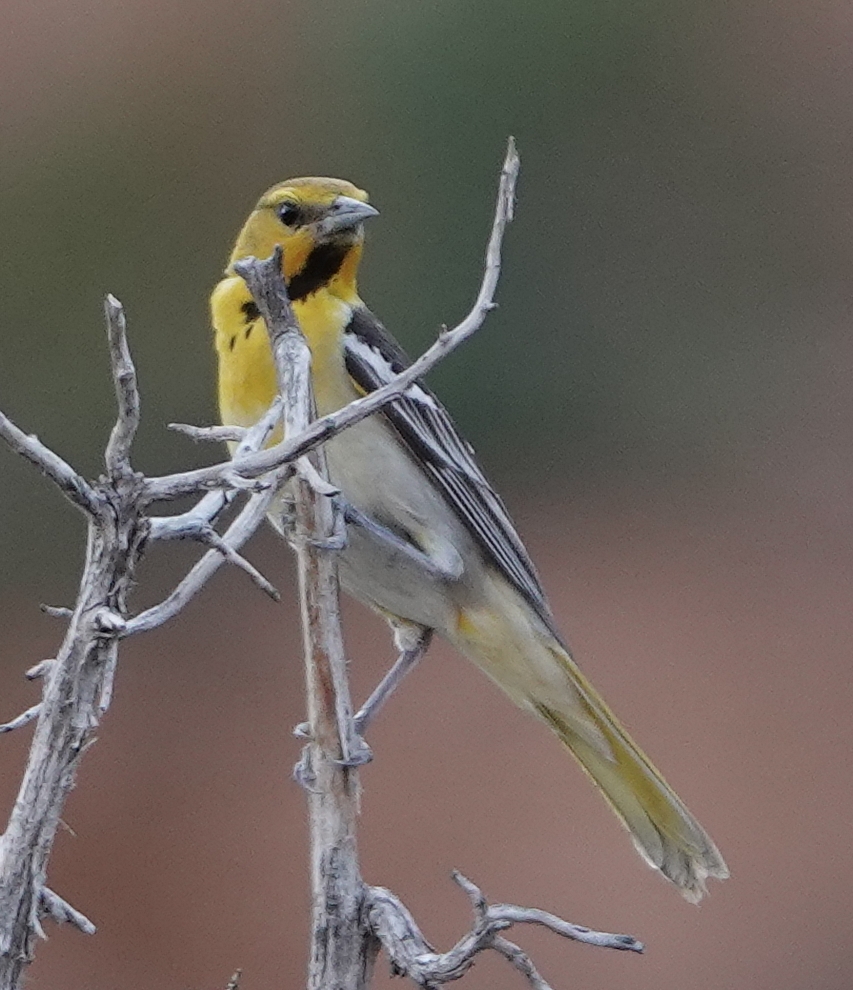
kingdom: Animalia
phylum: Chordata
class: Aves
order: Passeriformes
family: Icteridae
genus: Icterus
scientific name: Icterus bullockii
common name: Bullock's oriole
